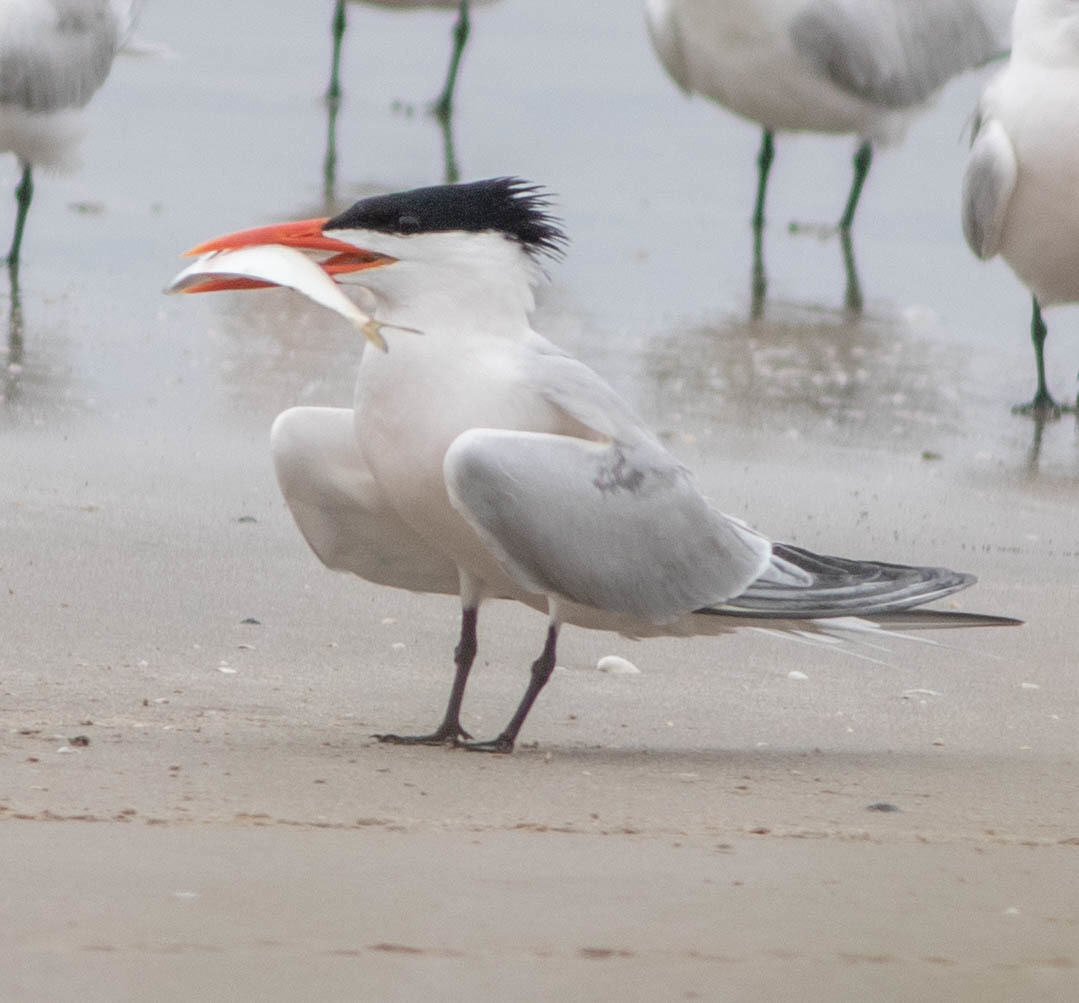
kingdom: Animalia
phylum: Chordata
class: Aves
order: Charadriiformes
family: Laridae
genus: Thalasseus
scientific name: Thalasseus maximus
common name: Royal tern
